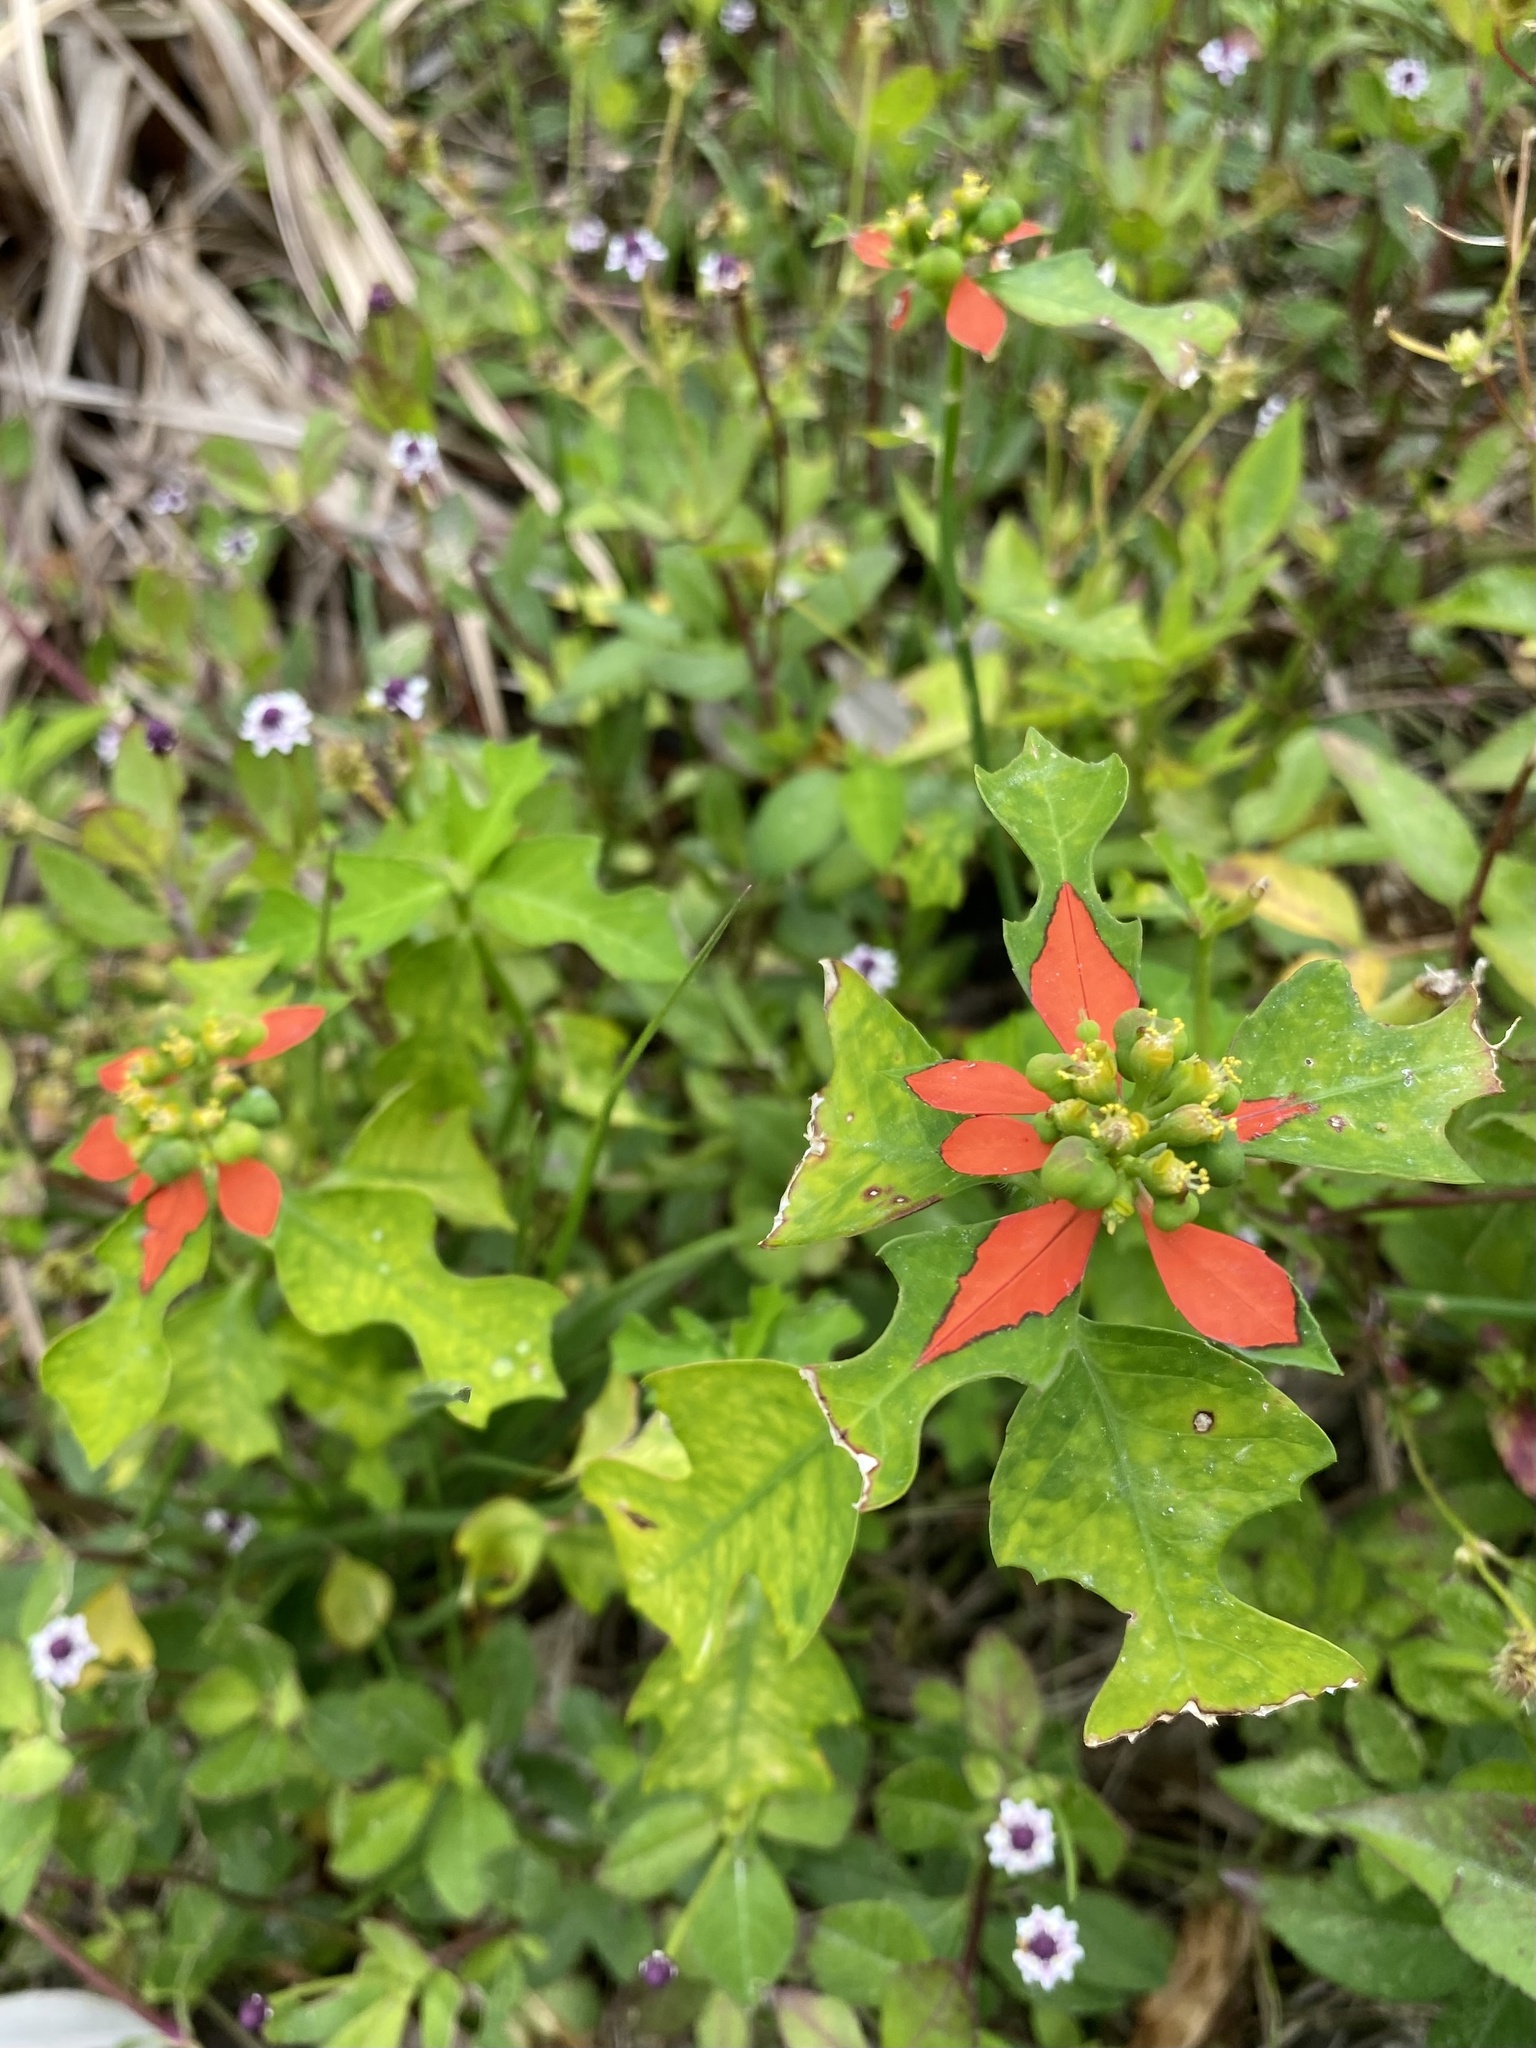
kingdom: Plantae
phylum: Tracheophyta
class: Magnoliopsida
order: Malpighiales
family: Euphorbiaceae
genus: Euphorbia
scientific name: Euphorbia heterophylla
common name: Mexican fireplant
